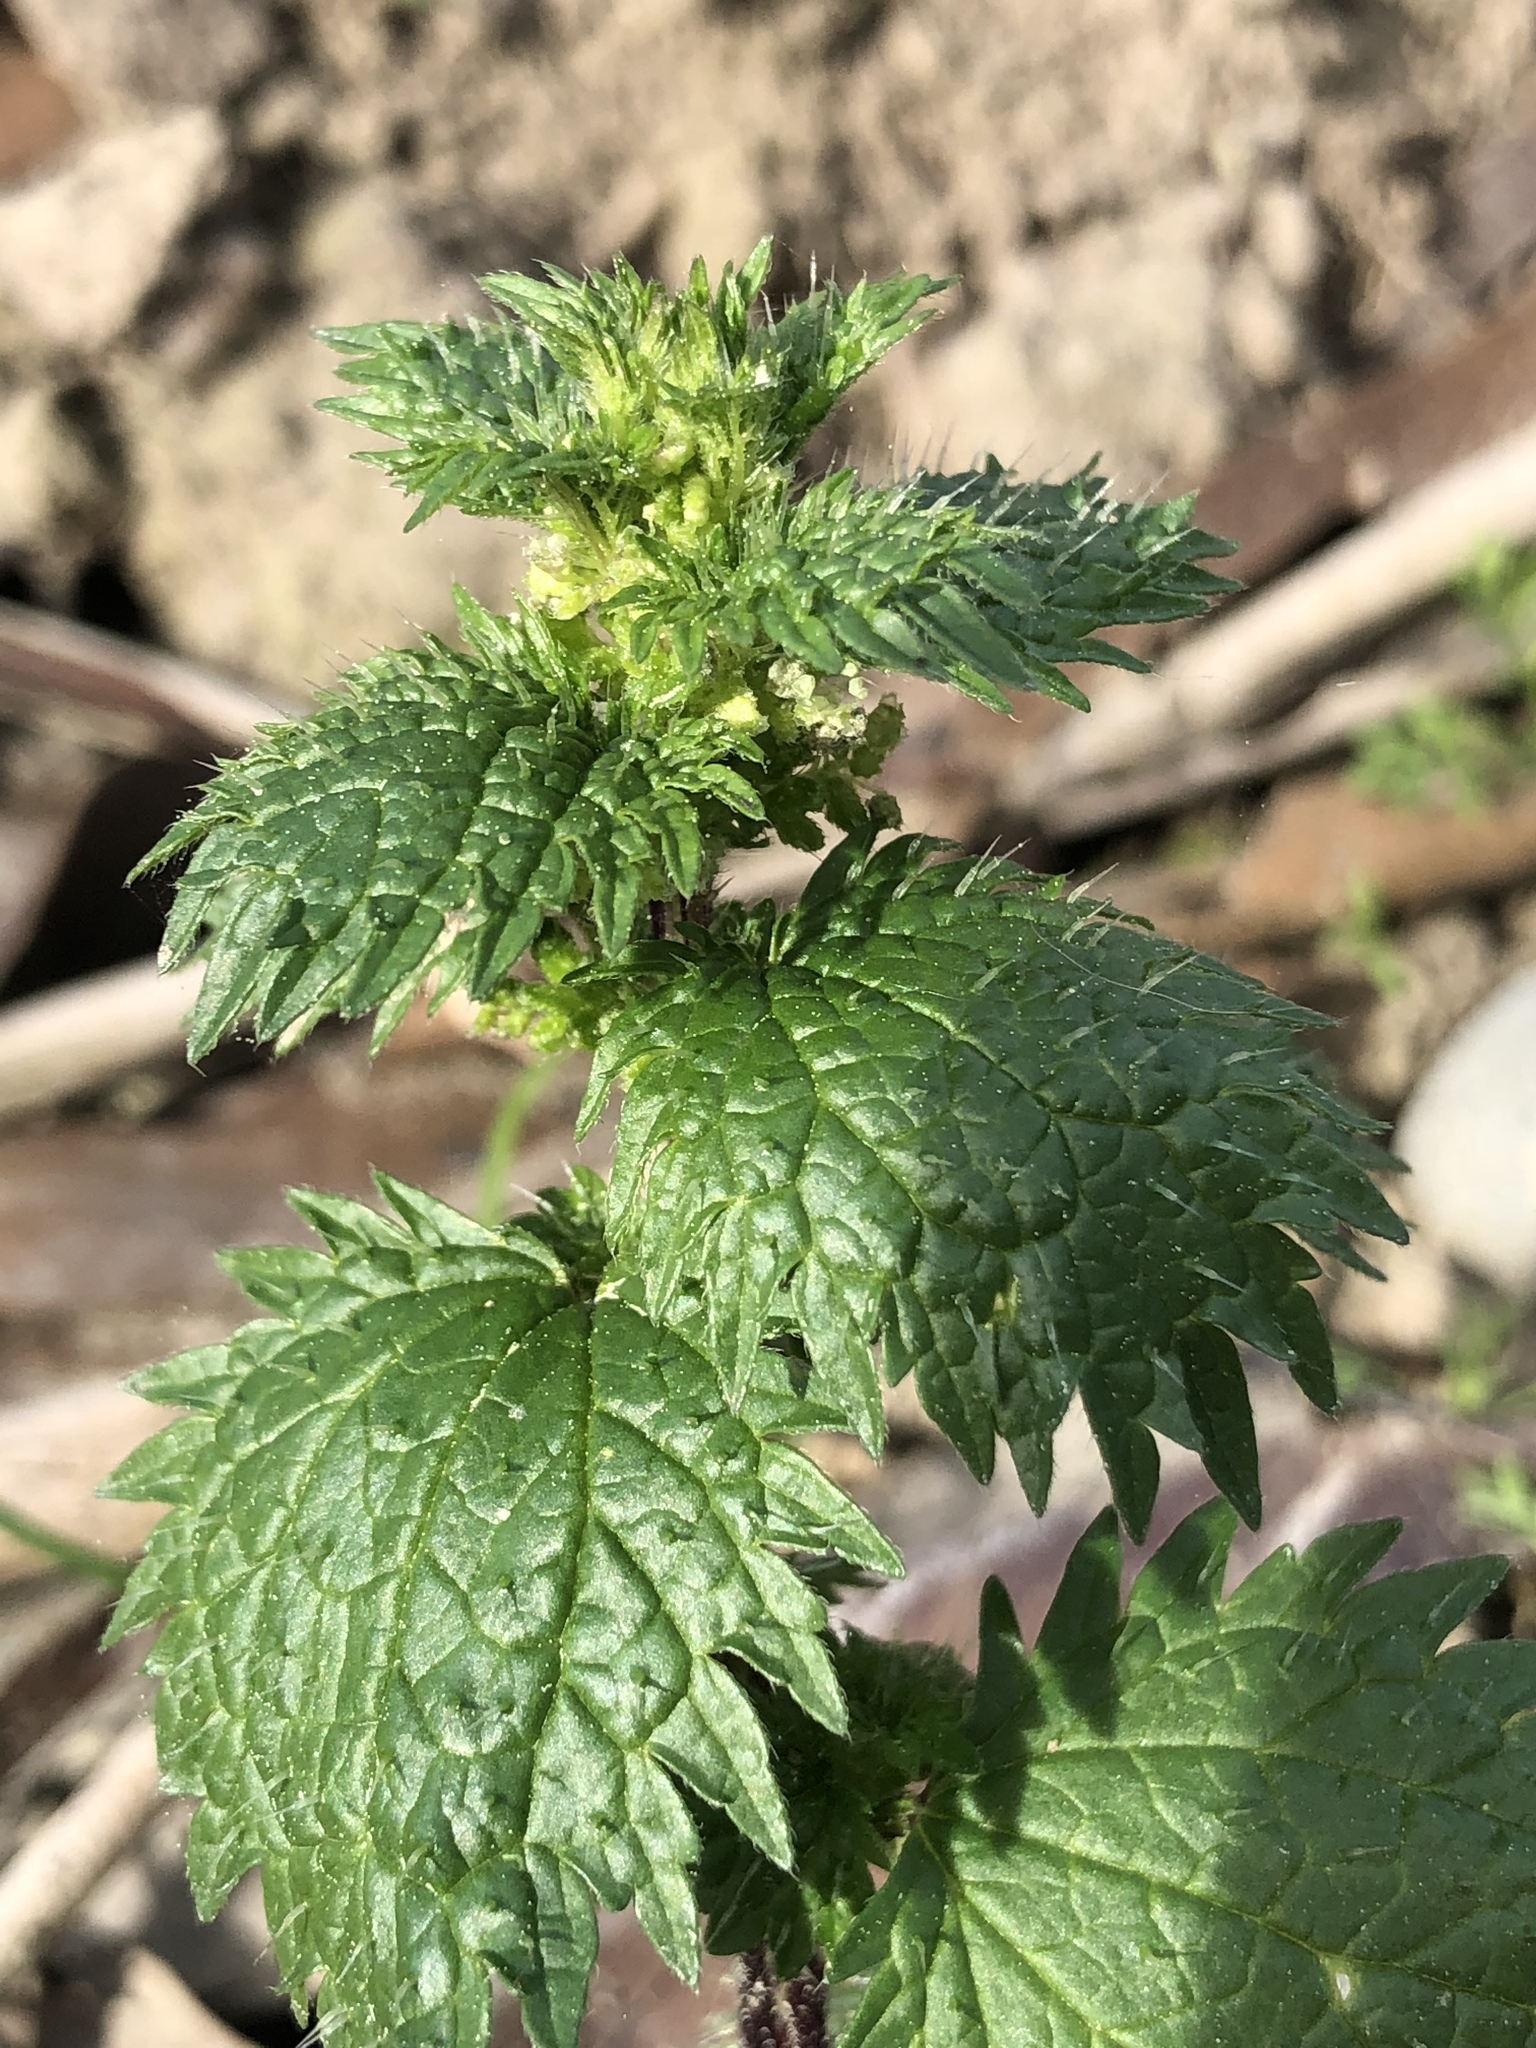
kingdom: Plantae
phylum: Tracheophyta
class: Magnoliopsida
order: Rosales
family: Urticaceae
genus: Urtica
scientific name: Urtica urens
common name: Dwarf nettle
